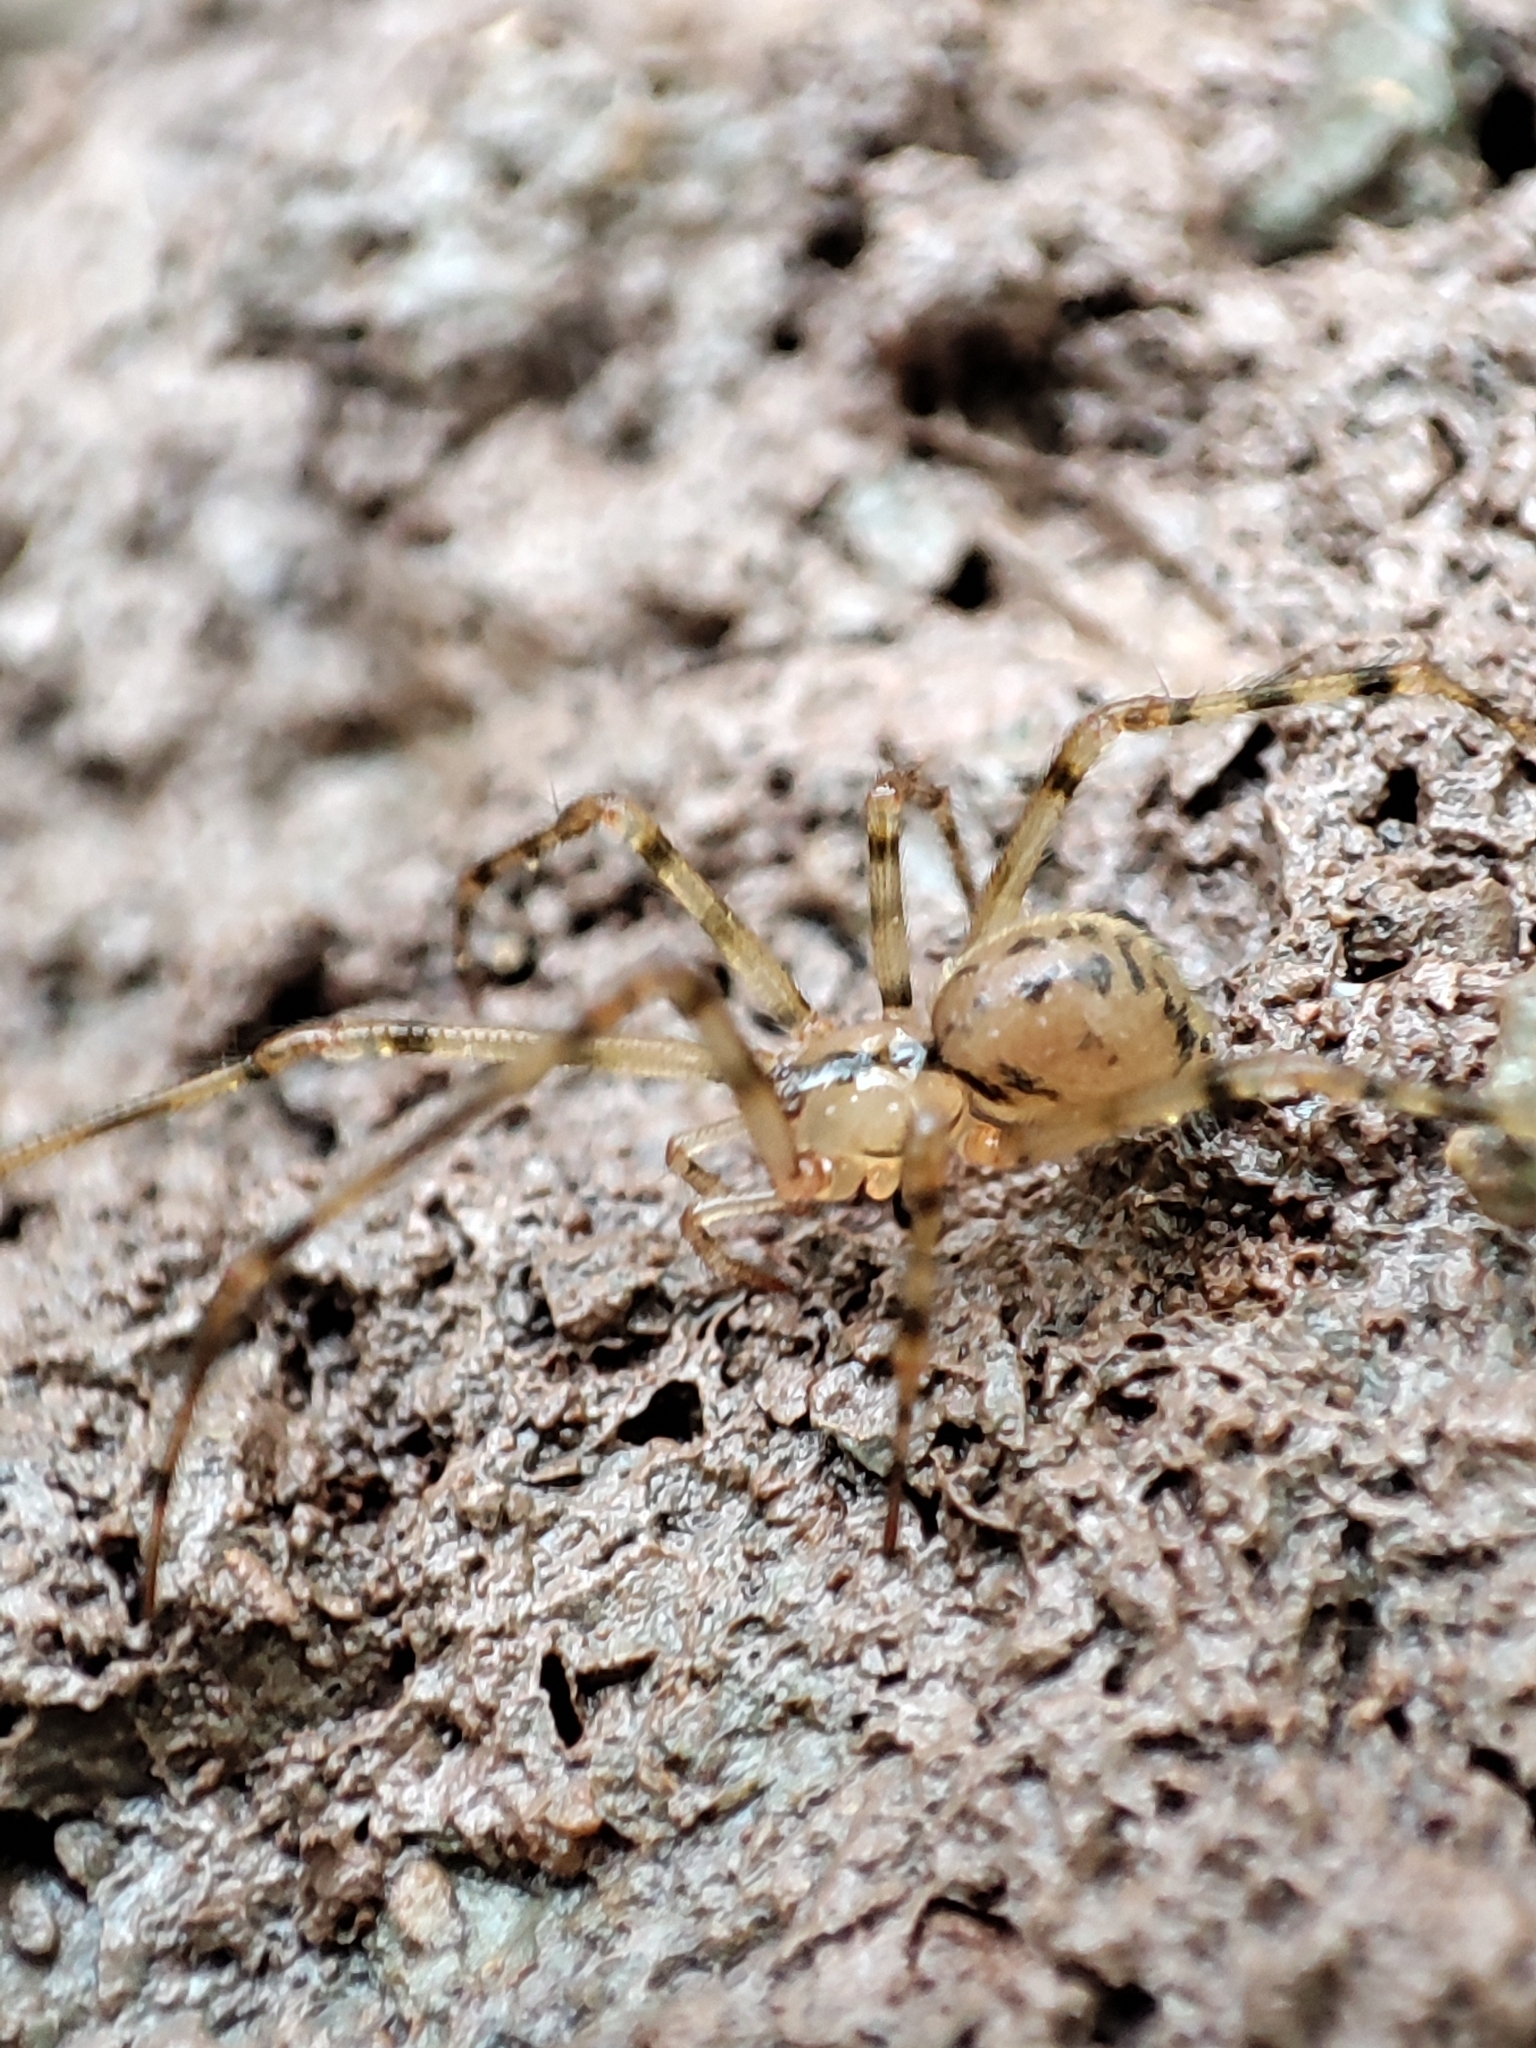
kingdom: Animalia
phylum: Arthropoda
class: Arachnida
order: Araneae
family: Nesticidae
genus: Nesticus
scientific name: Nesticus cellulanus
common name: Comb-footed cellar spider
